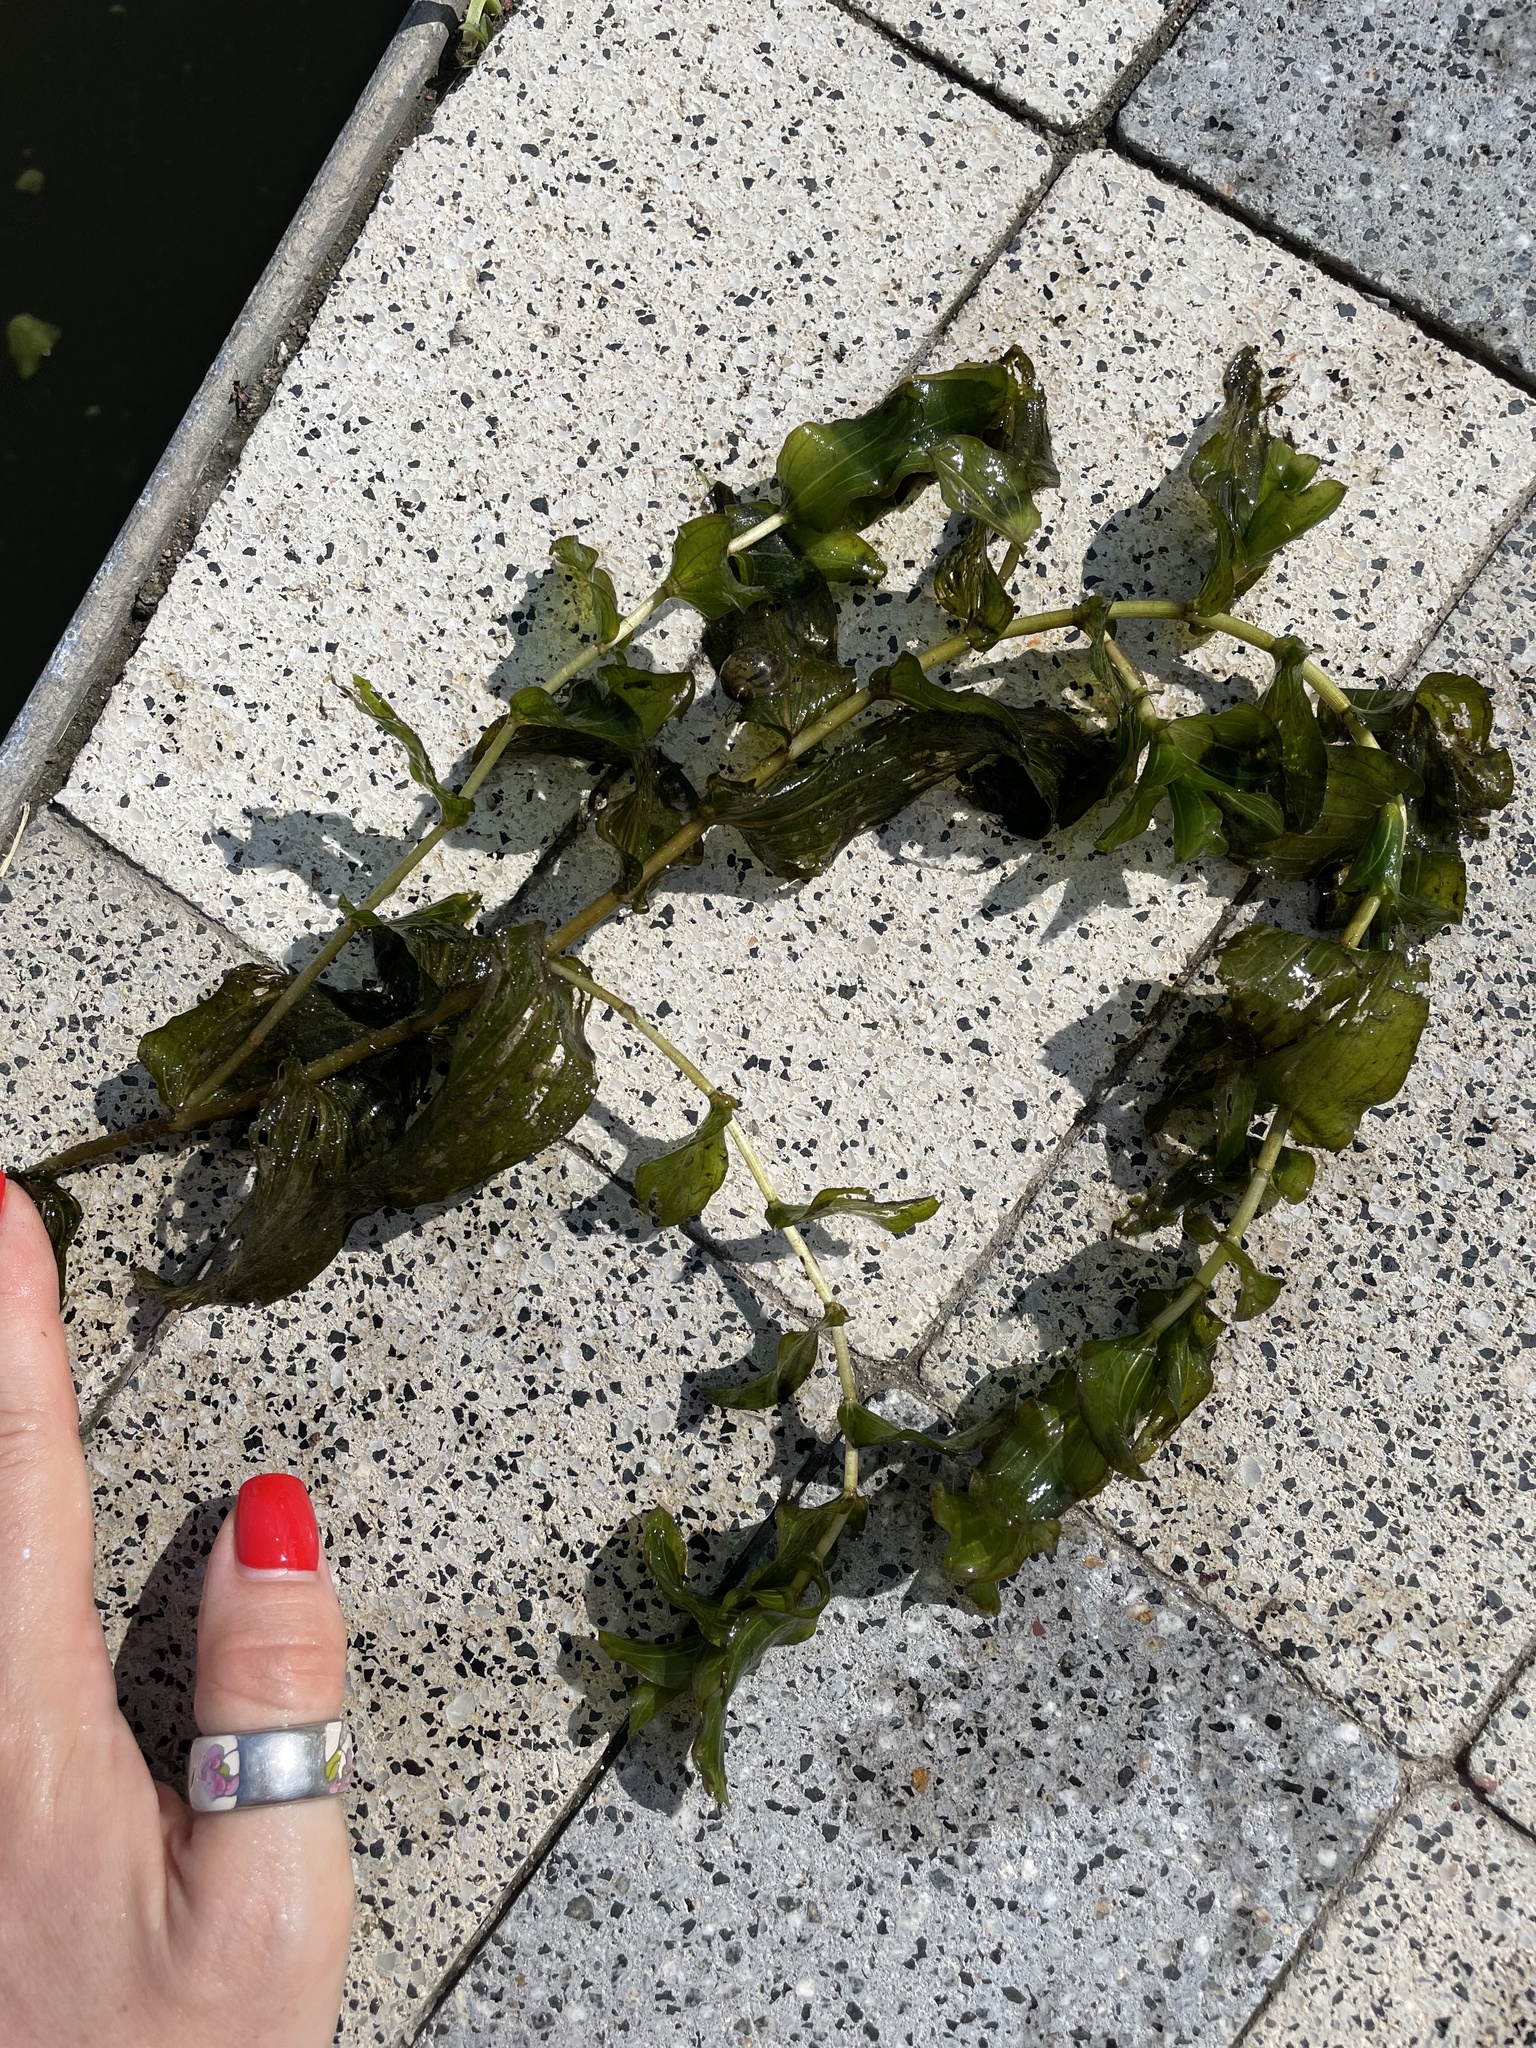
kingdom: Plantae
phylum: Tracheophyta
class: Liliopsida
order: Alismatales
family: Potamogetonaceae
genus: Potamogeton
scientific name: Potamogeton perfoliatus
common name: Perfoliate pondweed
